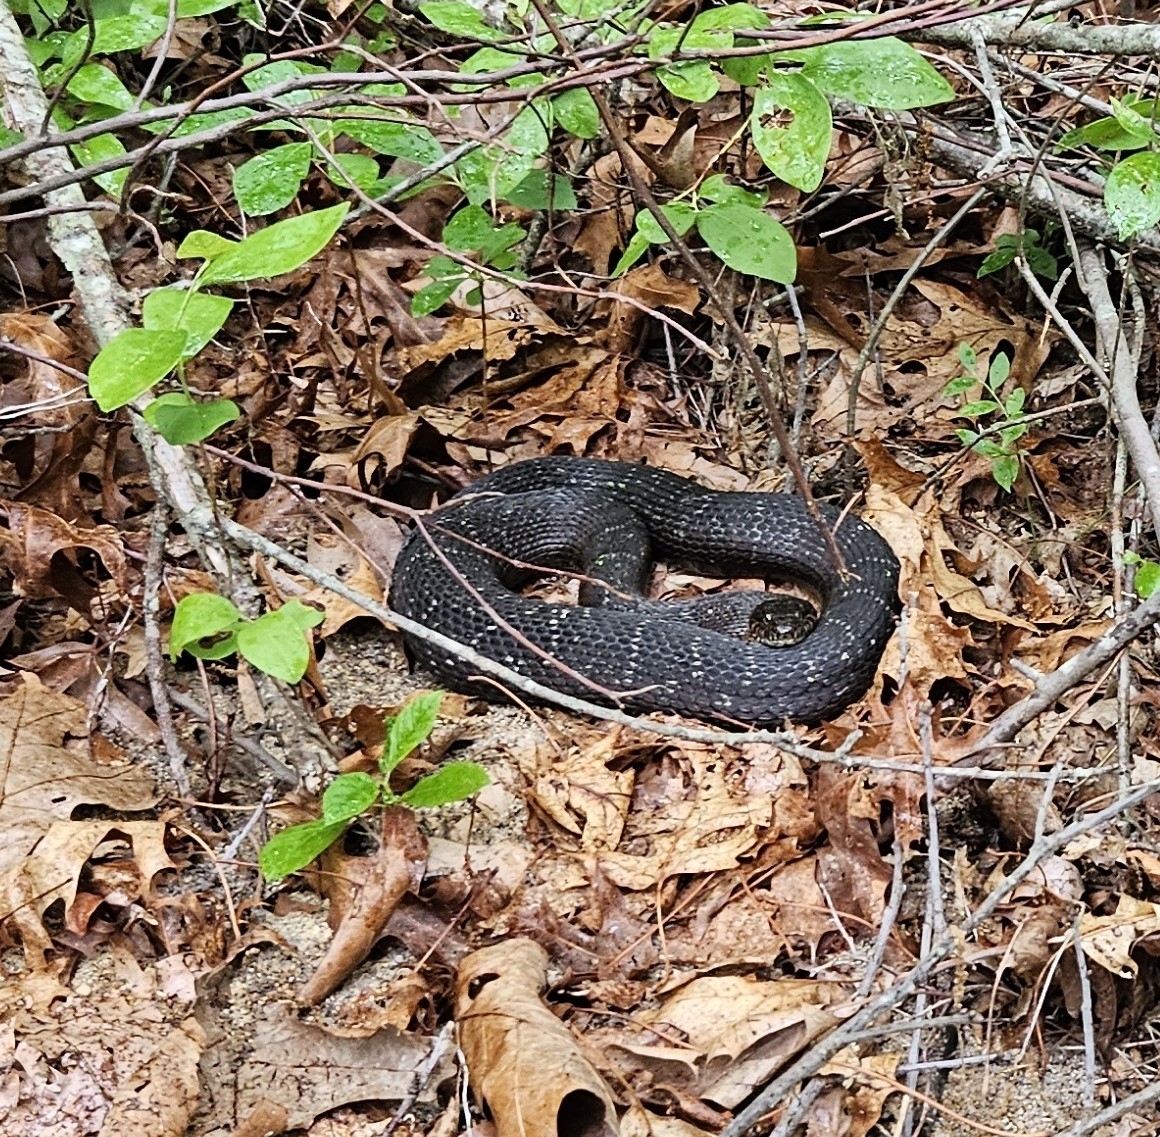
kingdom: Animalia
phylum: Chordata
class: Squamata
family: Colubridae
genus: Nerodia
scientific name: Nerodia sipedon
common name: Northern water snake
